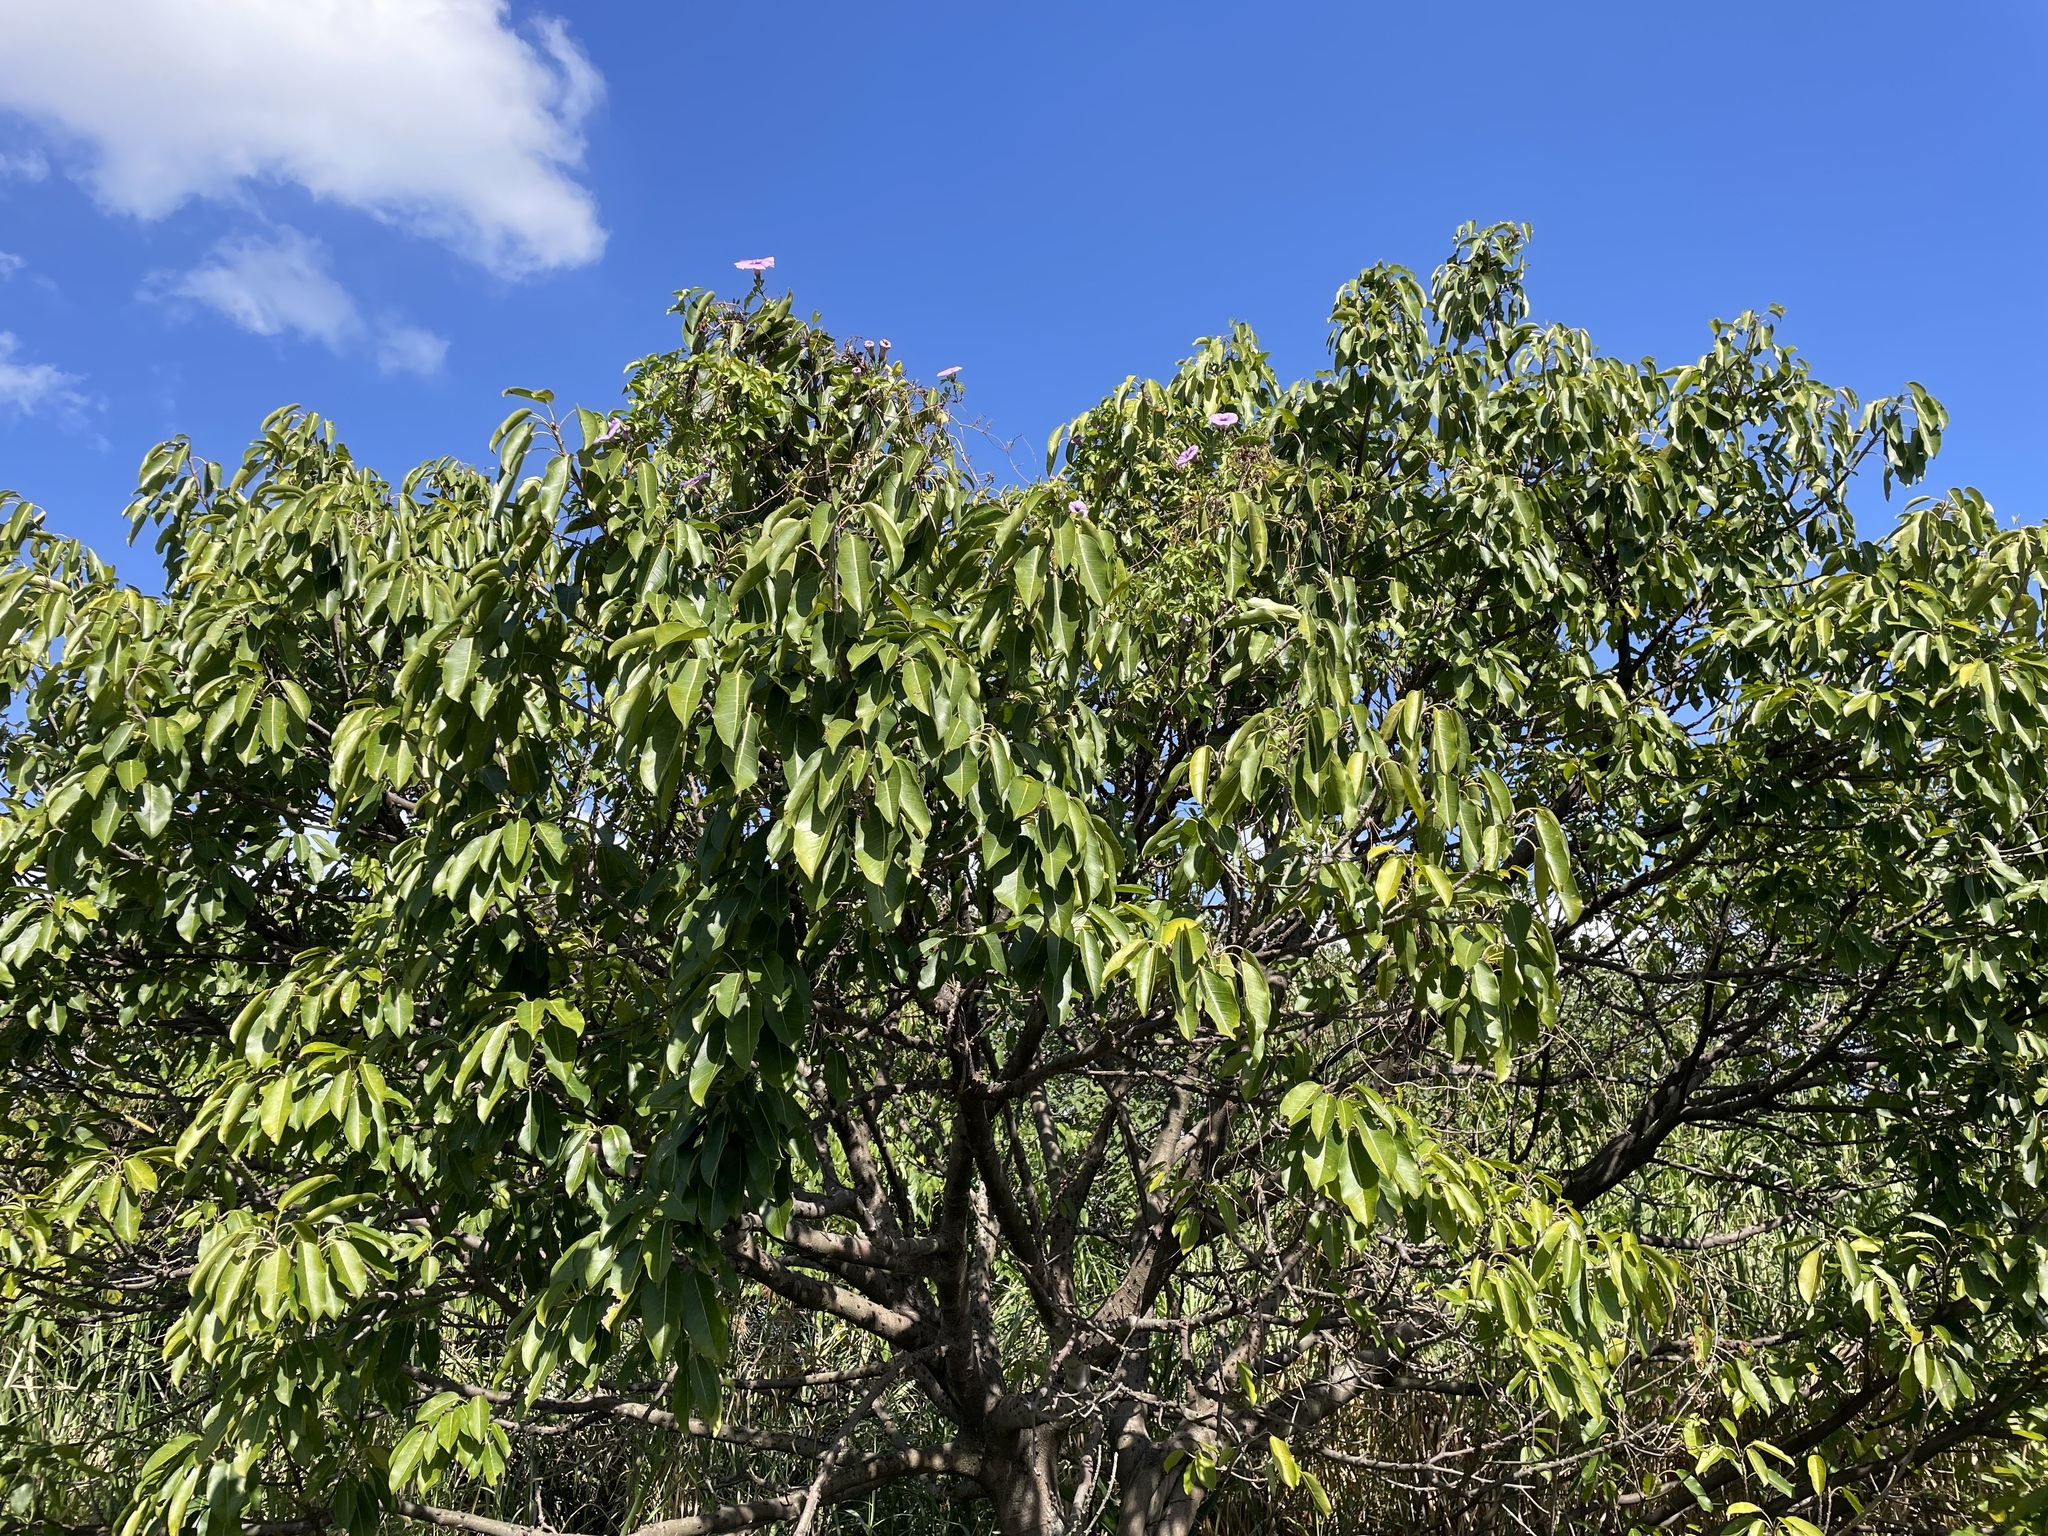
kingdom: Plantae
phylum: Tracheophyta
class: Magnoliopsida
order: Rosales
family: Moraceae
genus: Ficus
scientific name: Ficus subpisocarpa
